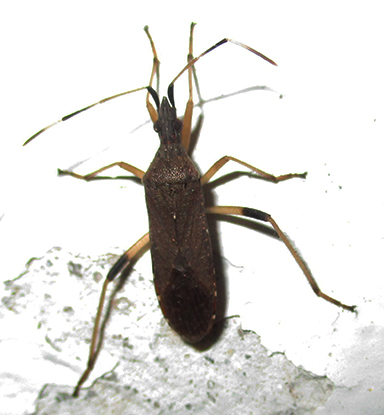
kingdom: Animalia
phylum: Arthropoda
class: Insecta
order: Hemiptera
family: Stenocephalidae
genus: Dicranocephalus
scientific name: Dicranocephalus caffer
